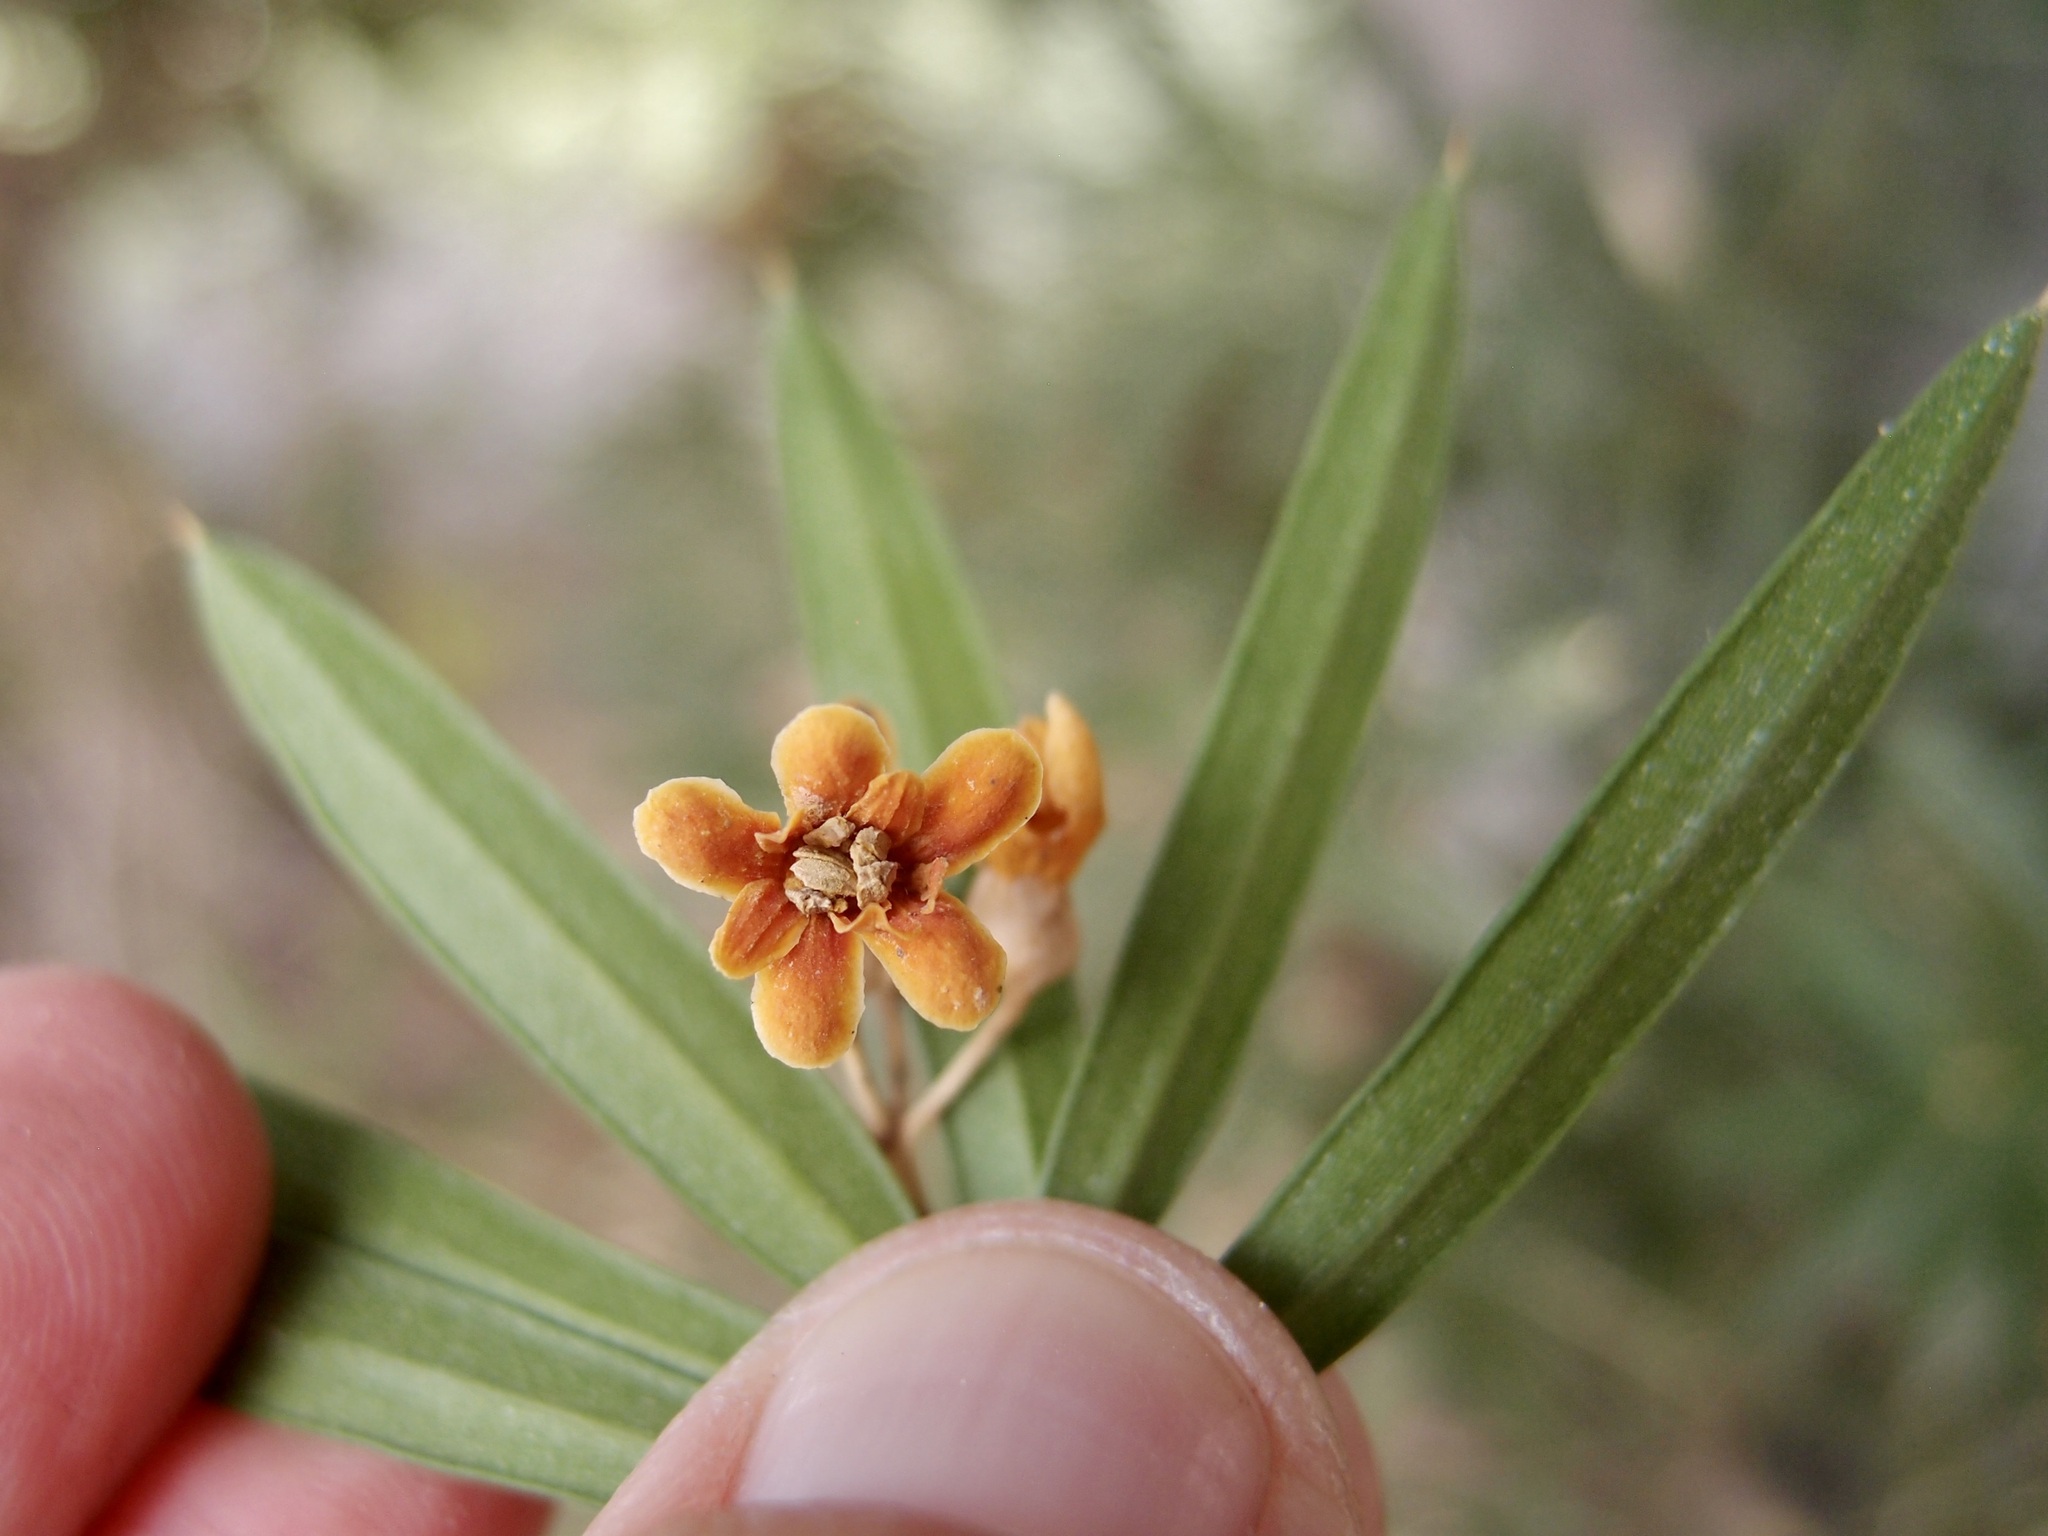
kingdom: Plantae
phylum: Tracheophyta
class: Magnoliopsida
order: Ericales
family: Primulaceae
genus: Bonellia
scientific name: Bonellia macrocarpa
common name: Primrose
